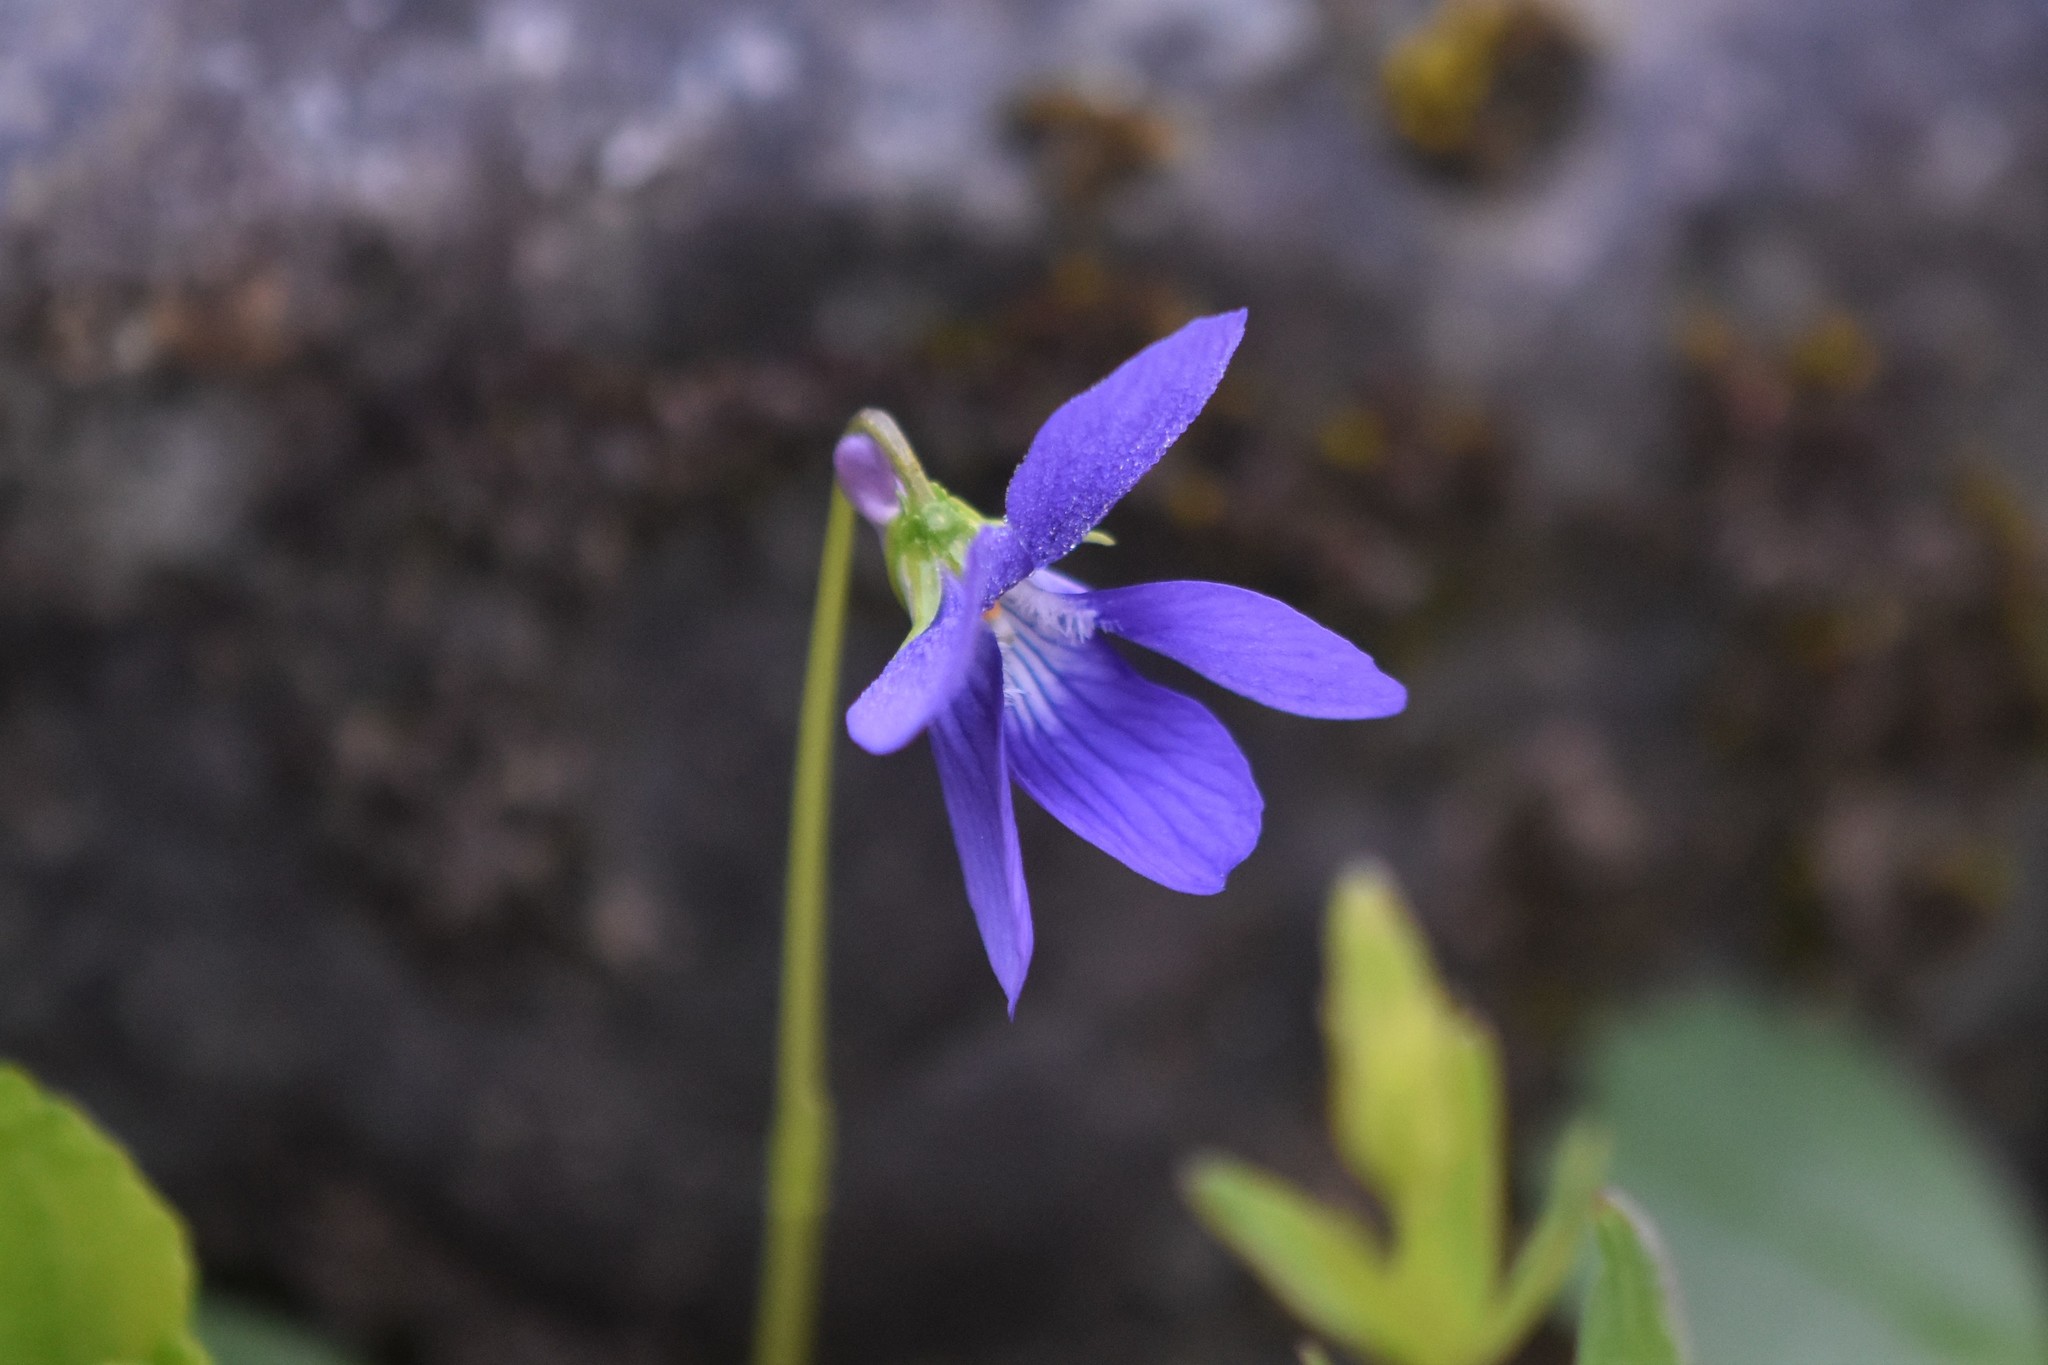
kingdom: Plantae
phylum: Tracheophyta
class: Magnoliopsida
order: Malpighiales
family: Violaceae
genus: Viola
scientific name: Viola adunca
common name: Sand violet
